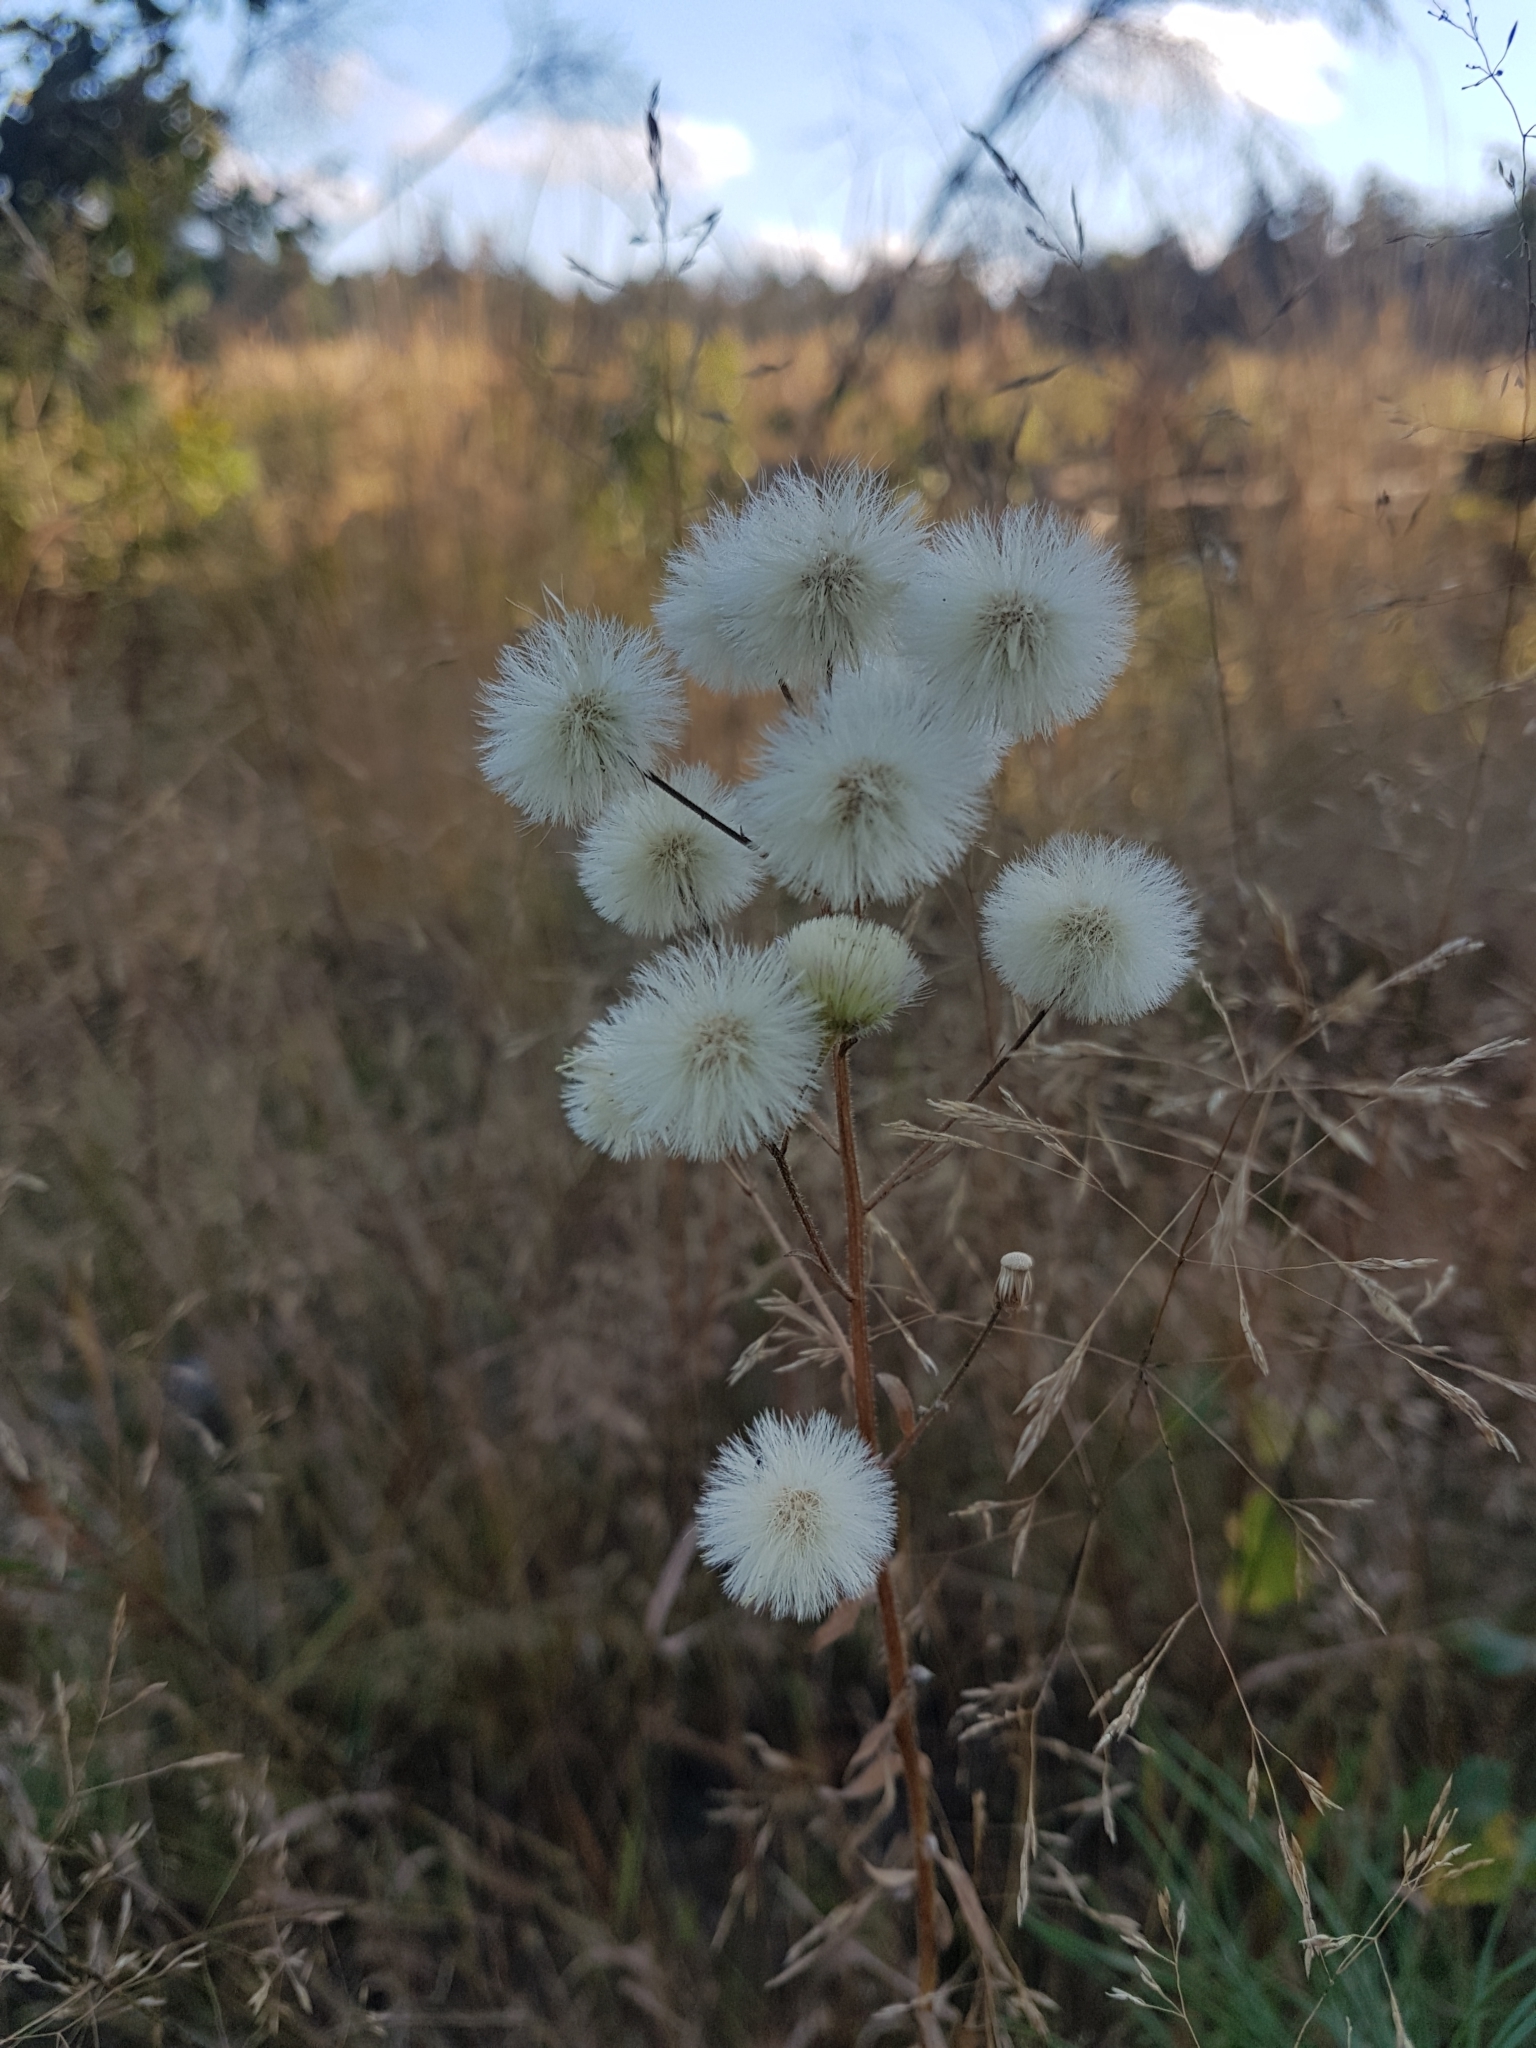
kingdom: Plantae
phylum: Tracheophyta
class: Magnoliopsida
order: Asterales
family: Asteraceae
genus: Erigeron
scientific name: Erigeron acris
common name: Blue fleabane
